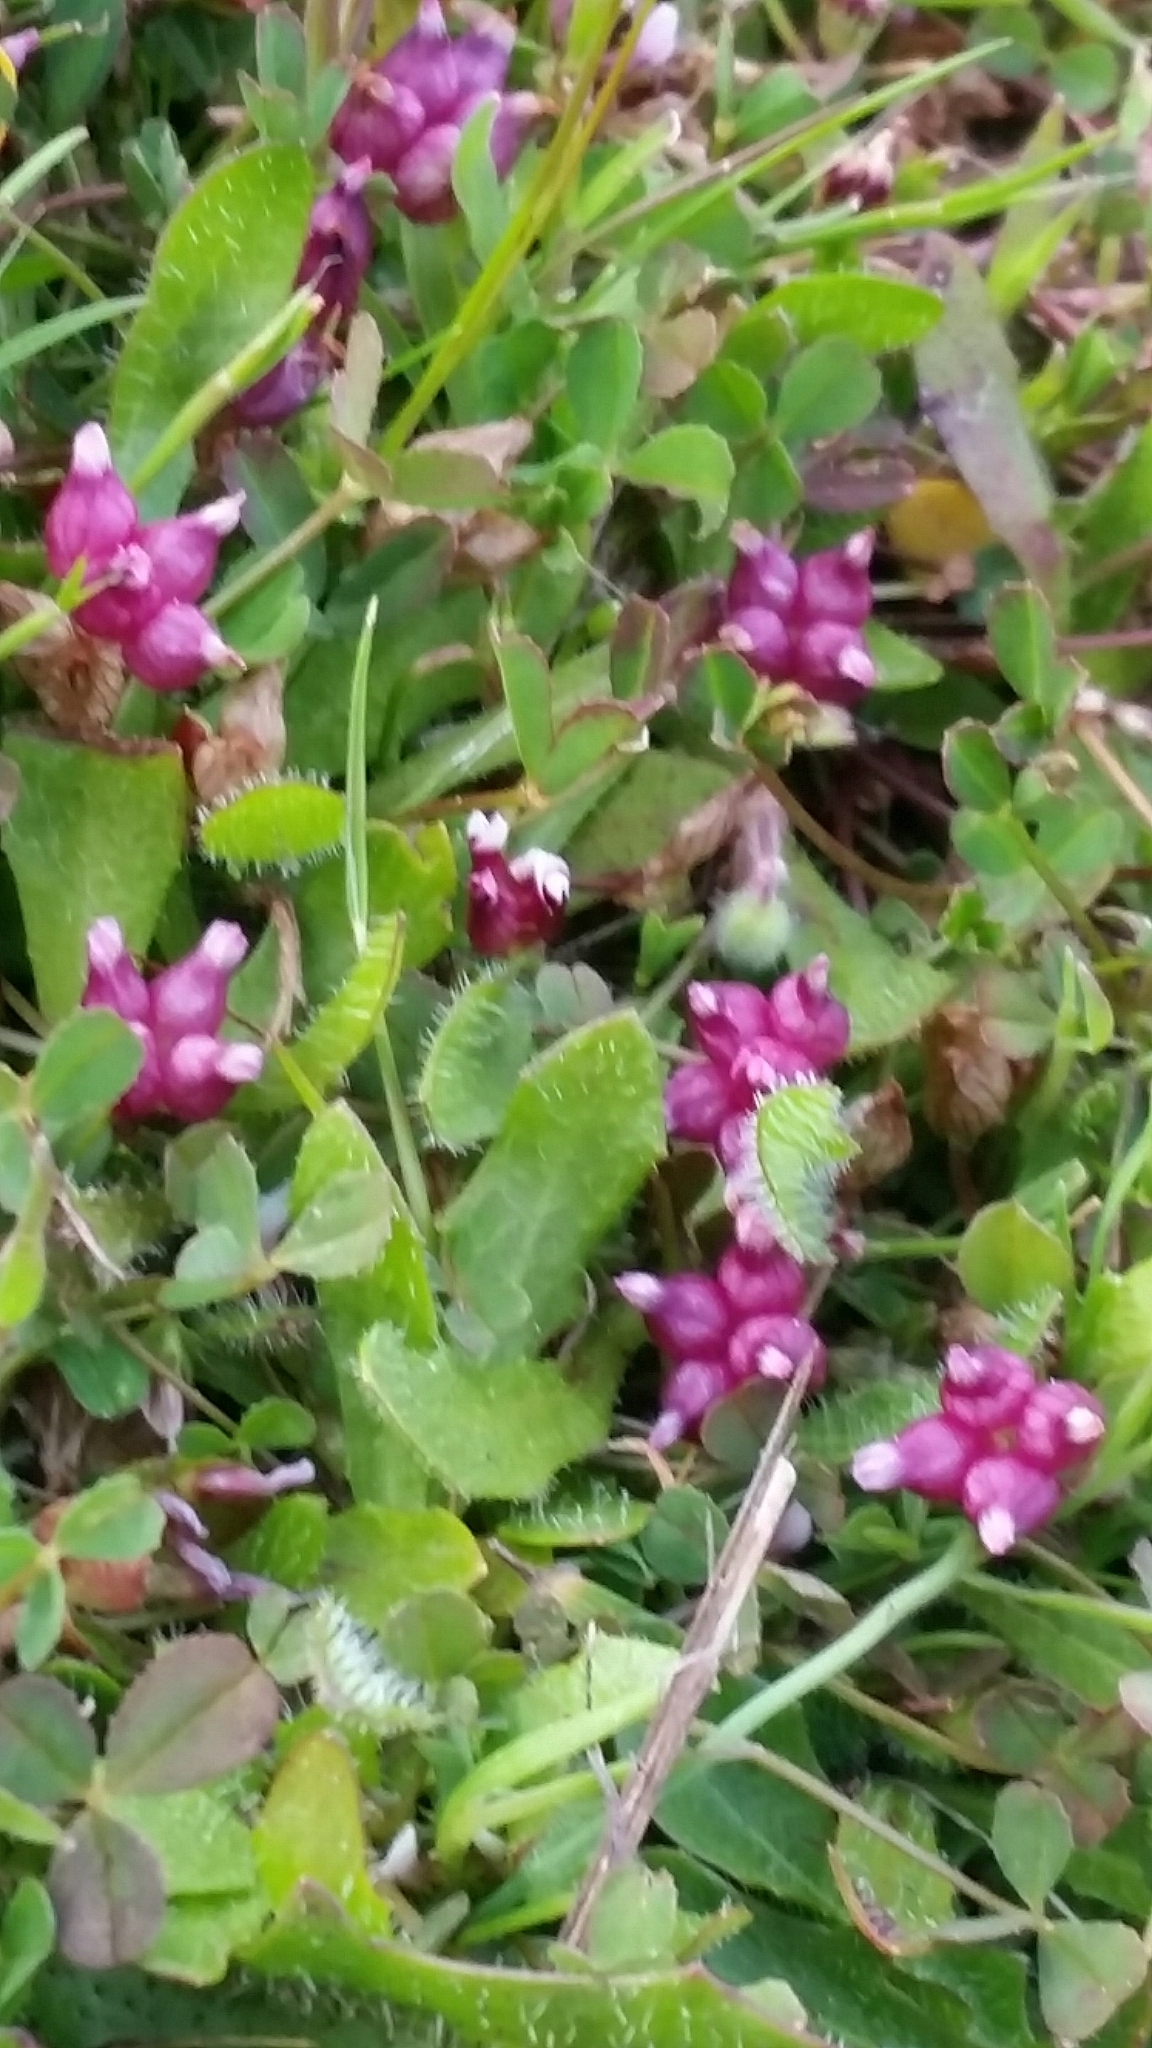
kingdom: Plantae
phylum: Tracheophyta
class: Magnoliopsida
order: Fabales
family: Fabaceae
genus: Trifolium
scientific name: Trifolium depauperatum
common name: Poverty clover
